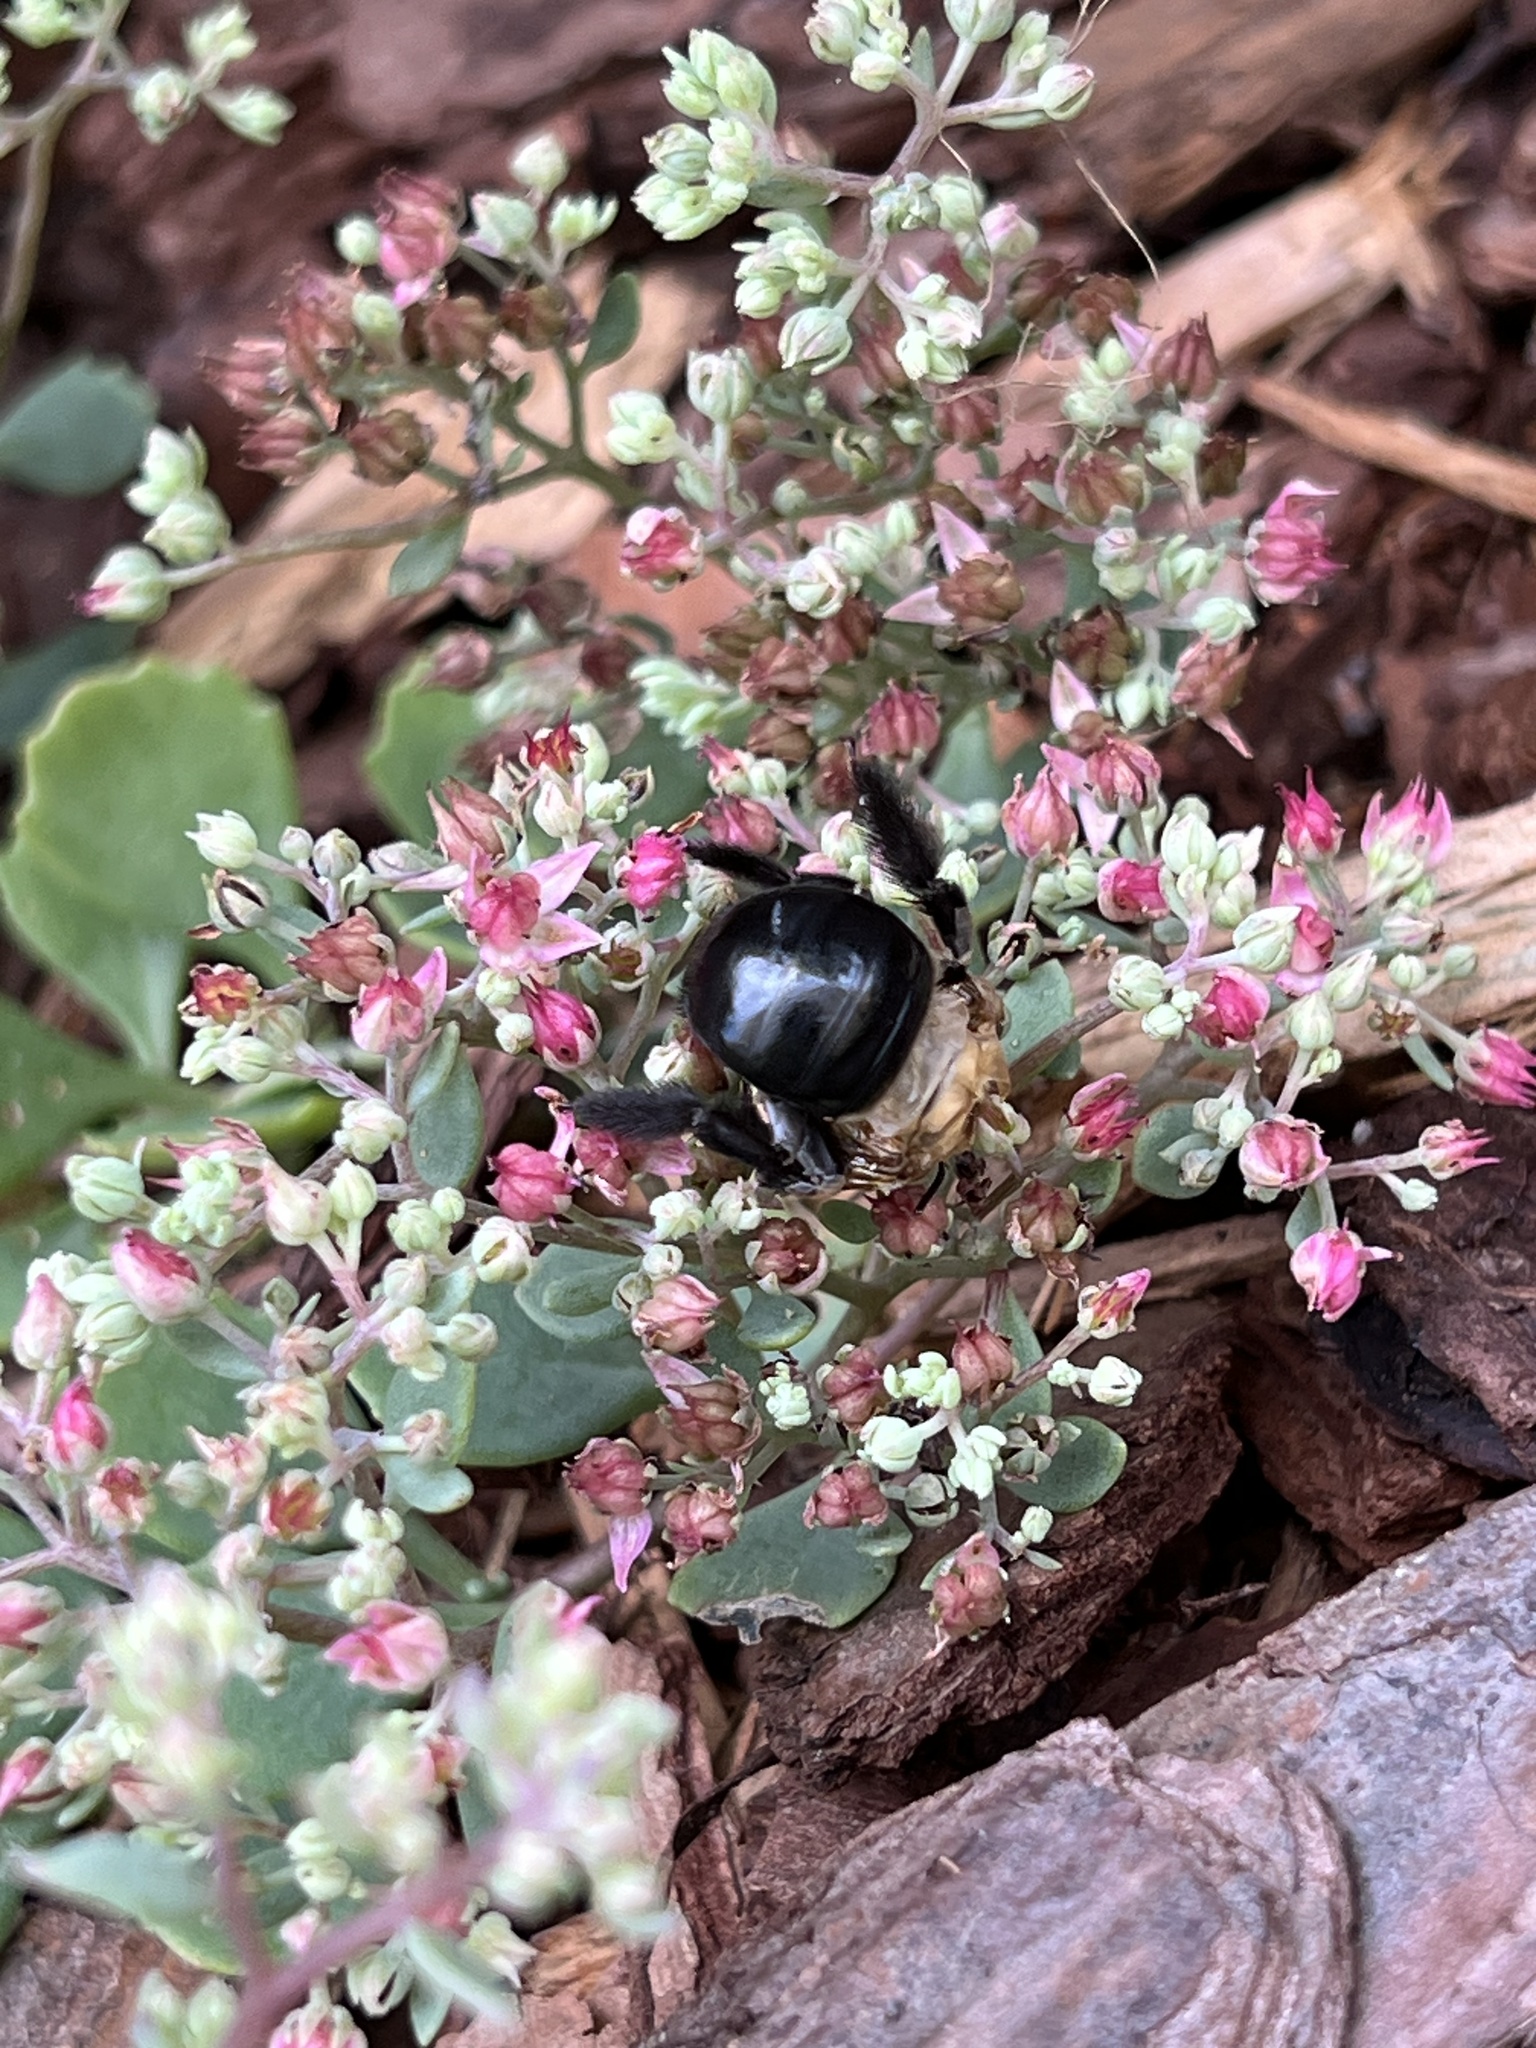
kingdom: Animalia
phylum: Arthropoda
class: Insecta
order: Hymenoptera
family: Apidae
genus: Xylocopa
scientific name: Xylocopa virginica
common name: Carpenter bee
